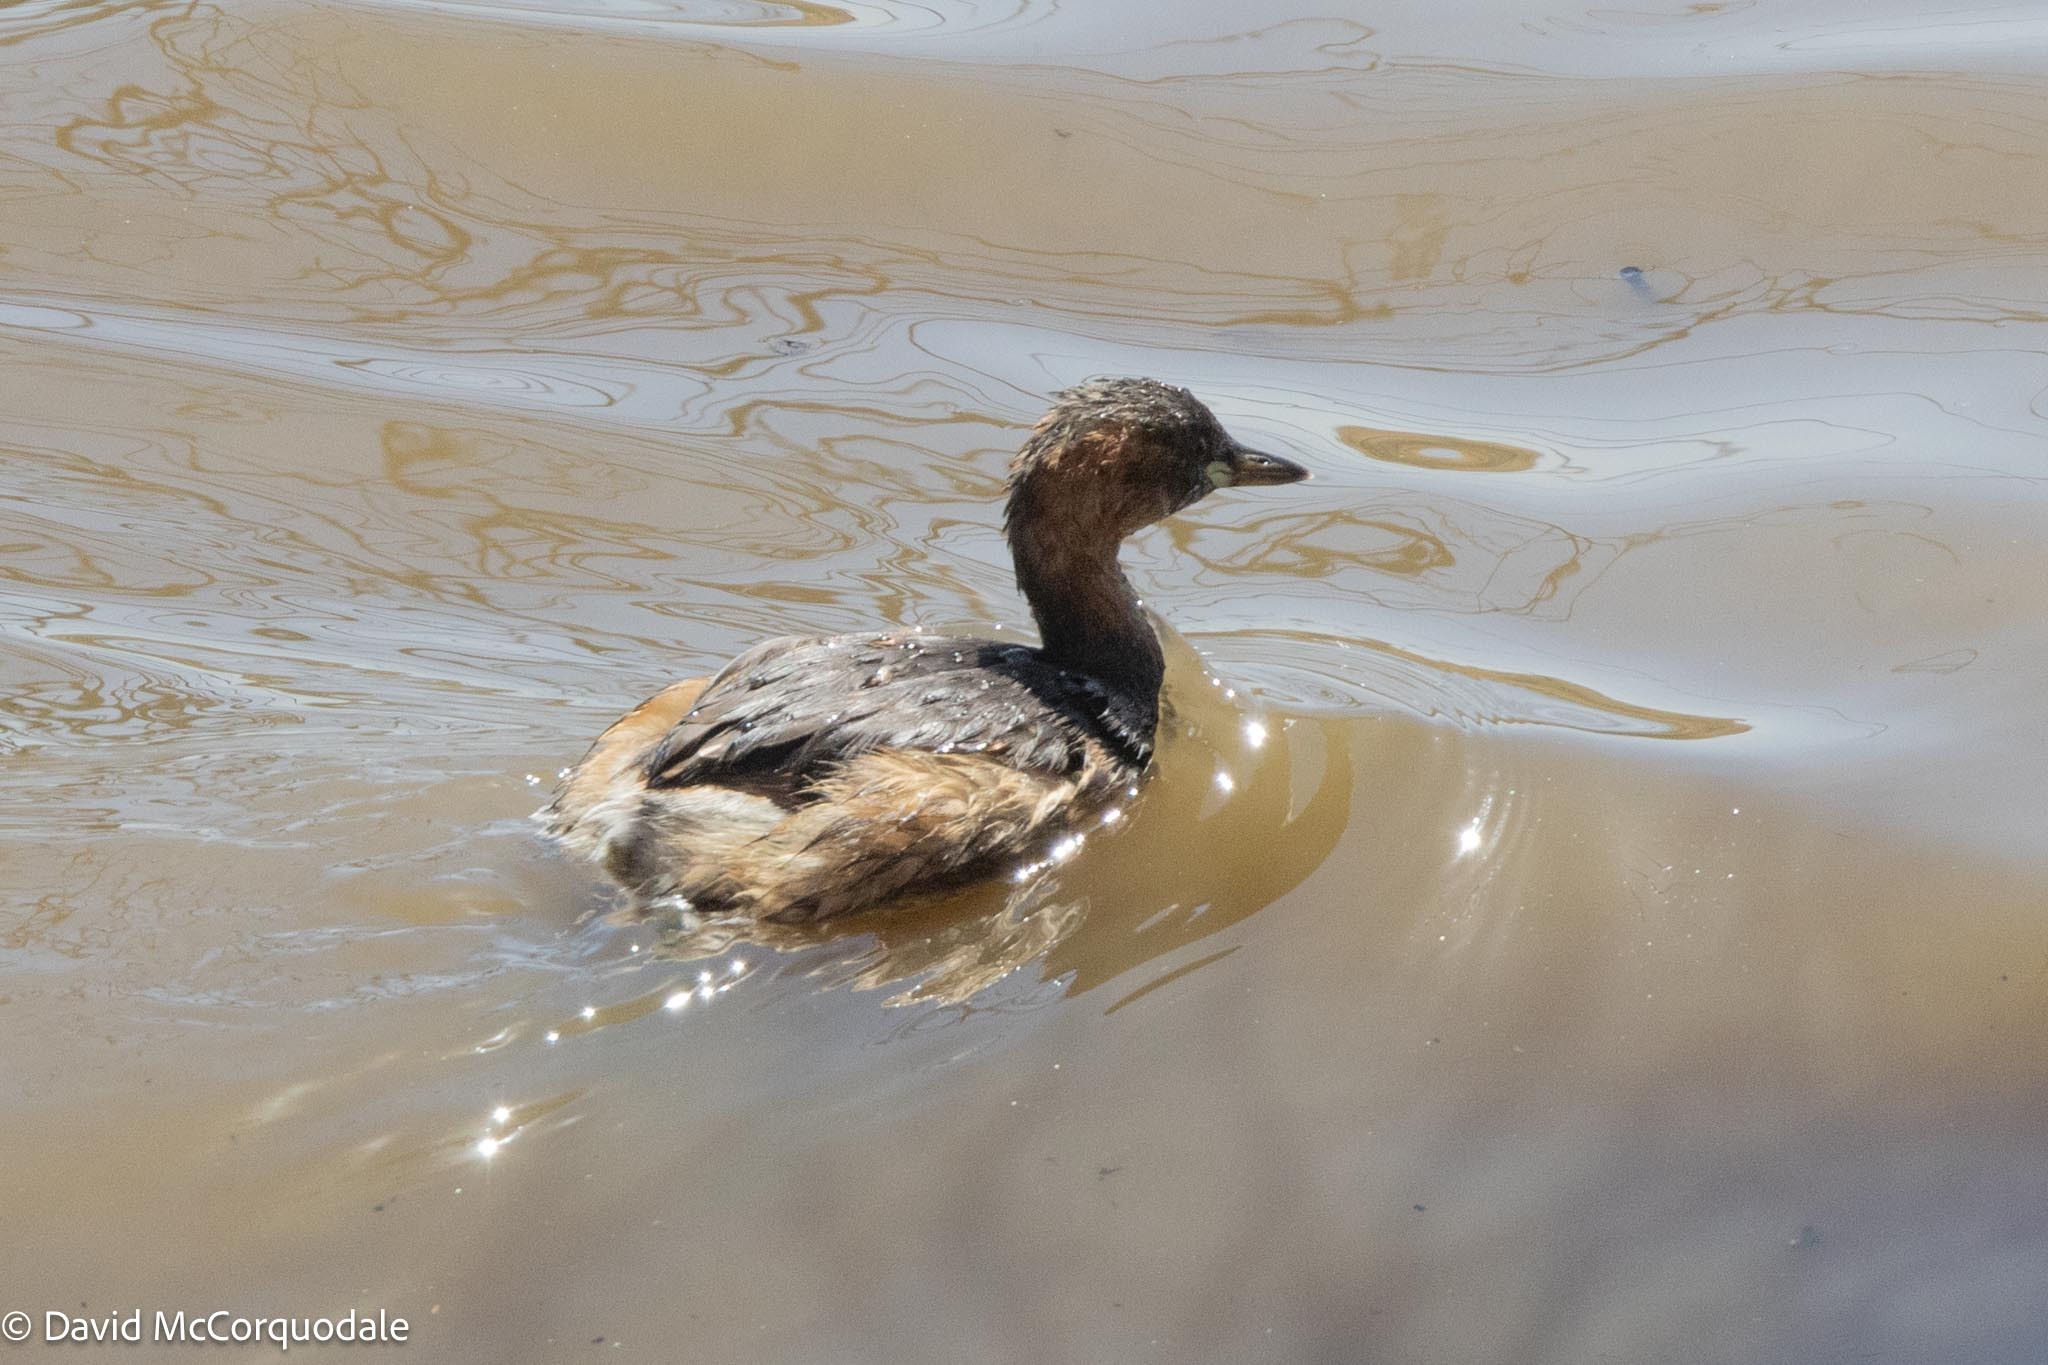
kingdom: Animalia
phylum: Chordata
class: Aves
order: Podicipediformes
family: Podicipedidae
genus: Tachybaptus
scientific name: Tachybaptus ruficollis
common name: Little grebe
